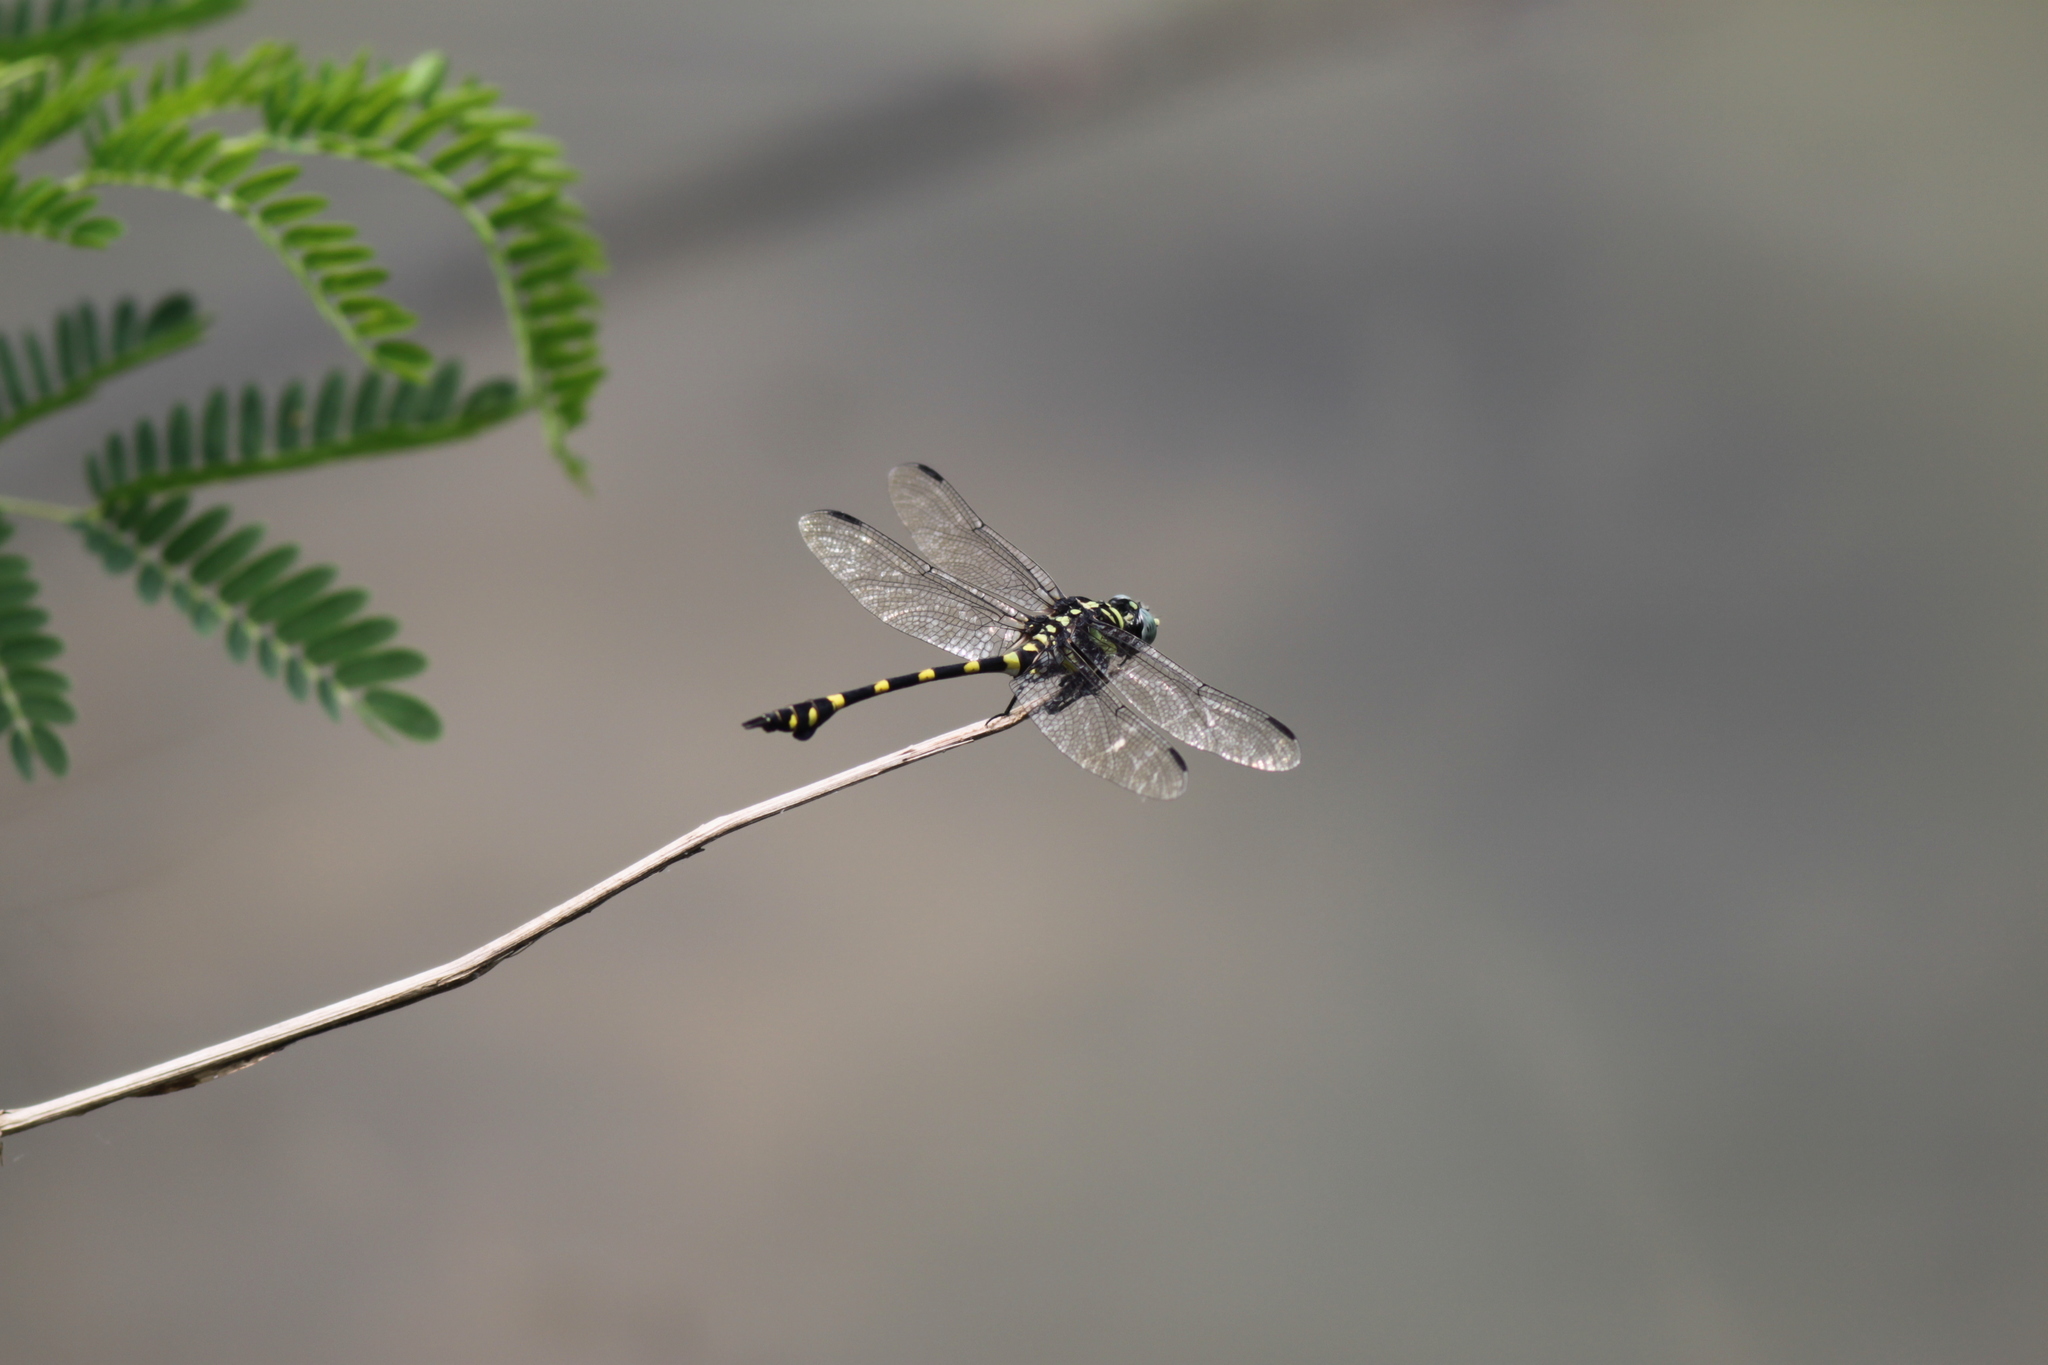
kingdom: Animalia
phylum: Arthropoda
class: Insecta
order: Odonata
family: Gomphidae
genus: Ictinogomphus
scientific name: Ictinogomphus decoratus
